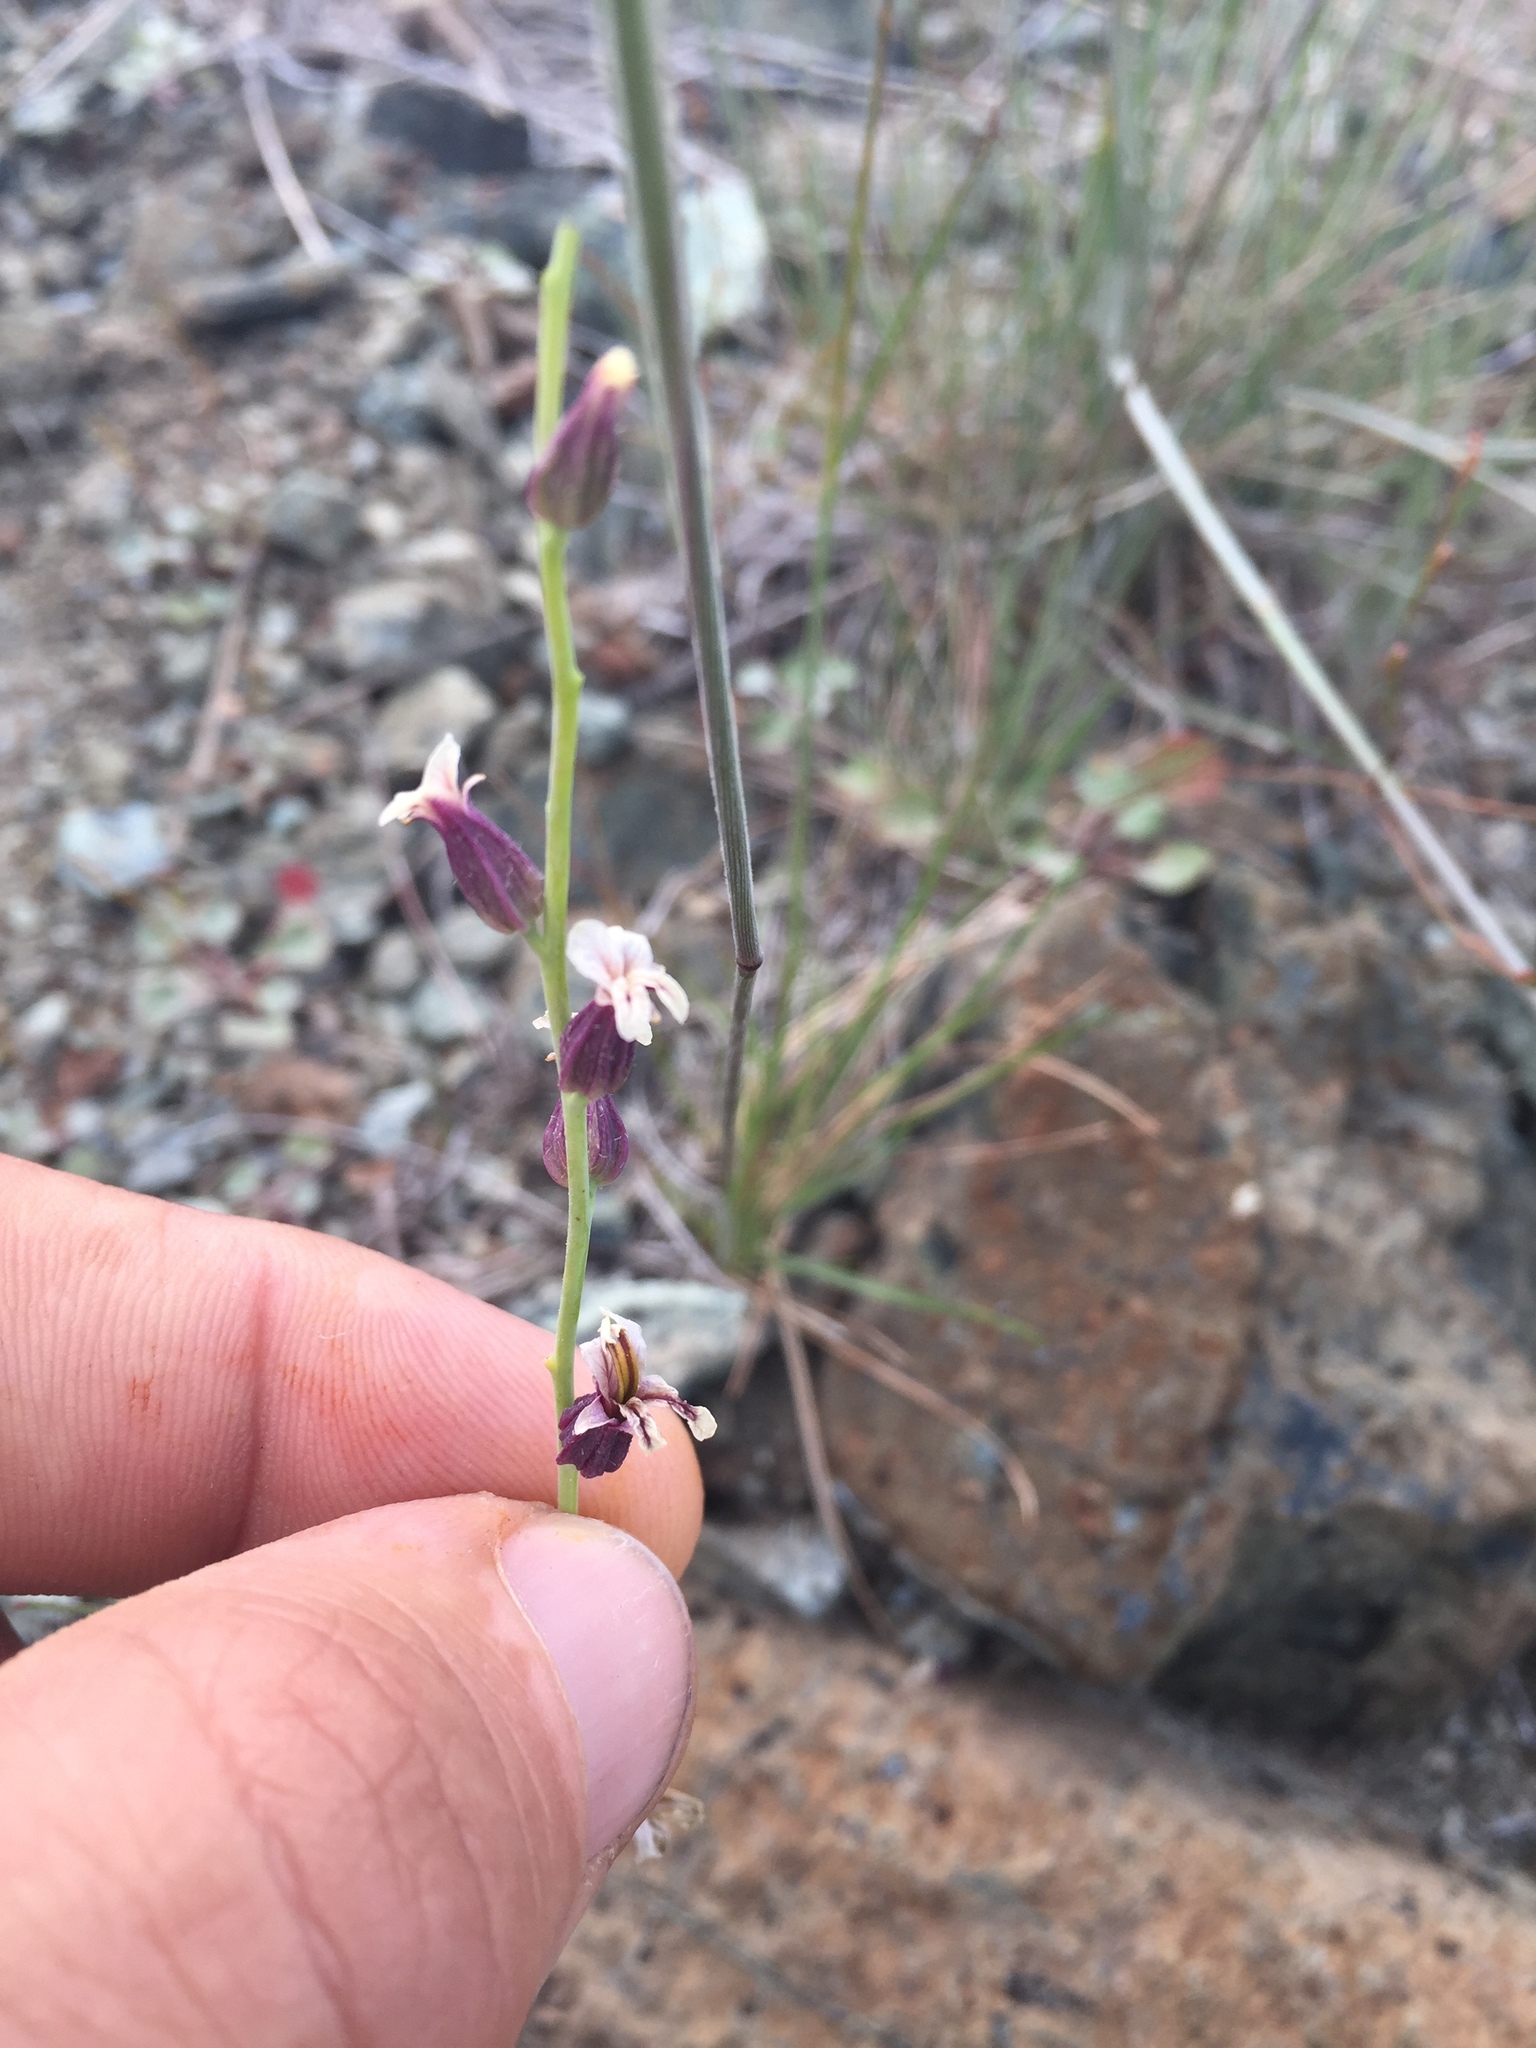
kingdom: Plantae
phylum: Tracheophyta
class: Magnoliopsida
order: Brassicales
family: Brassicaceae
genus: Streptanthus
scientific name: Streptanthus breweri
